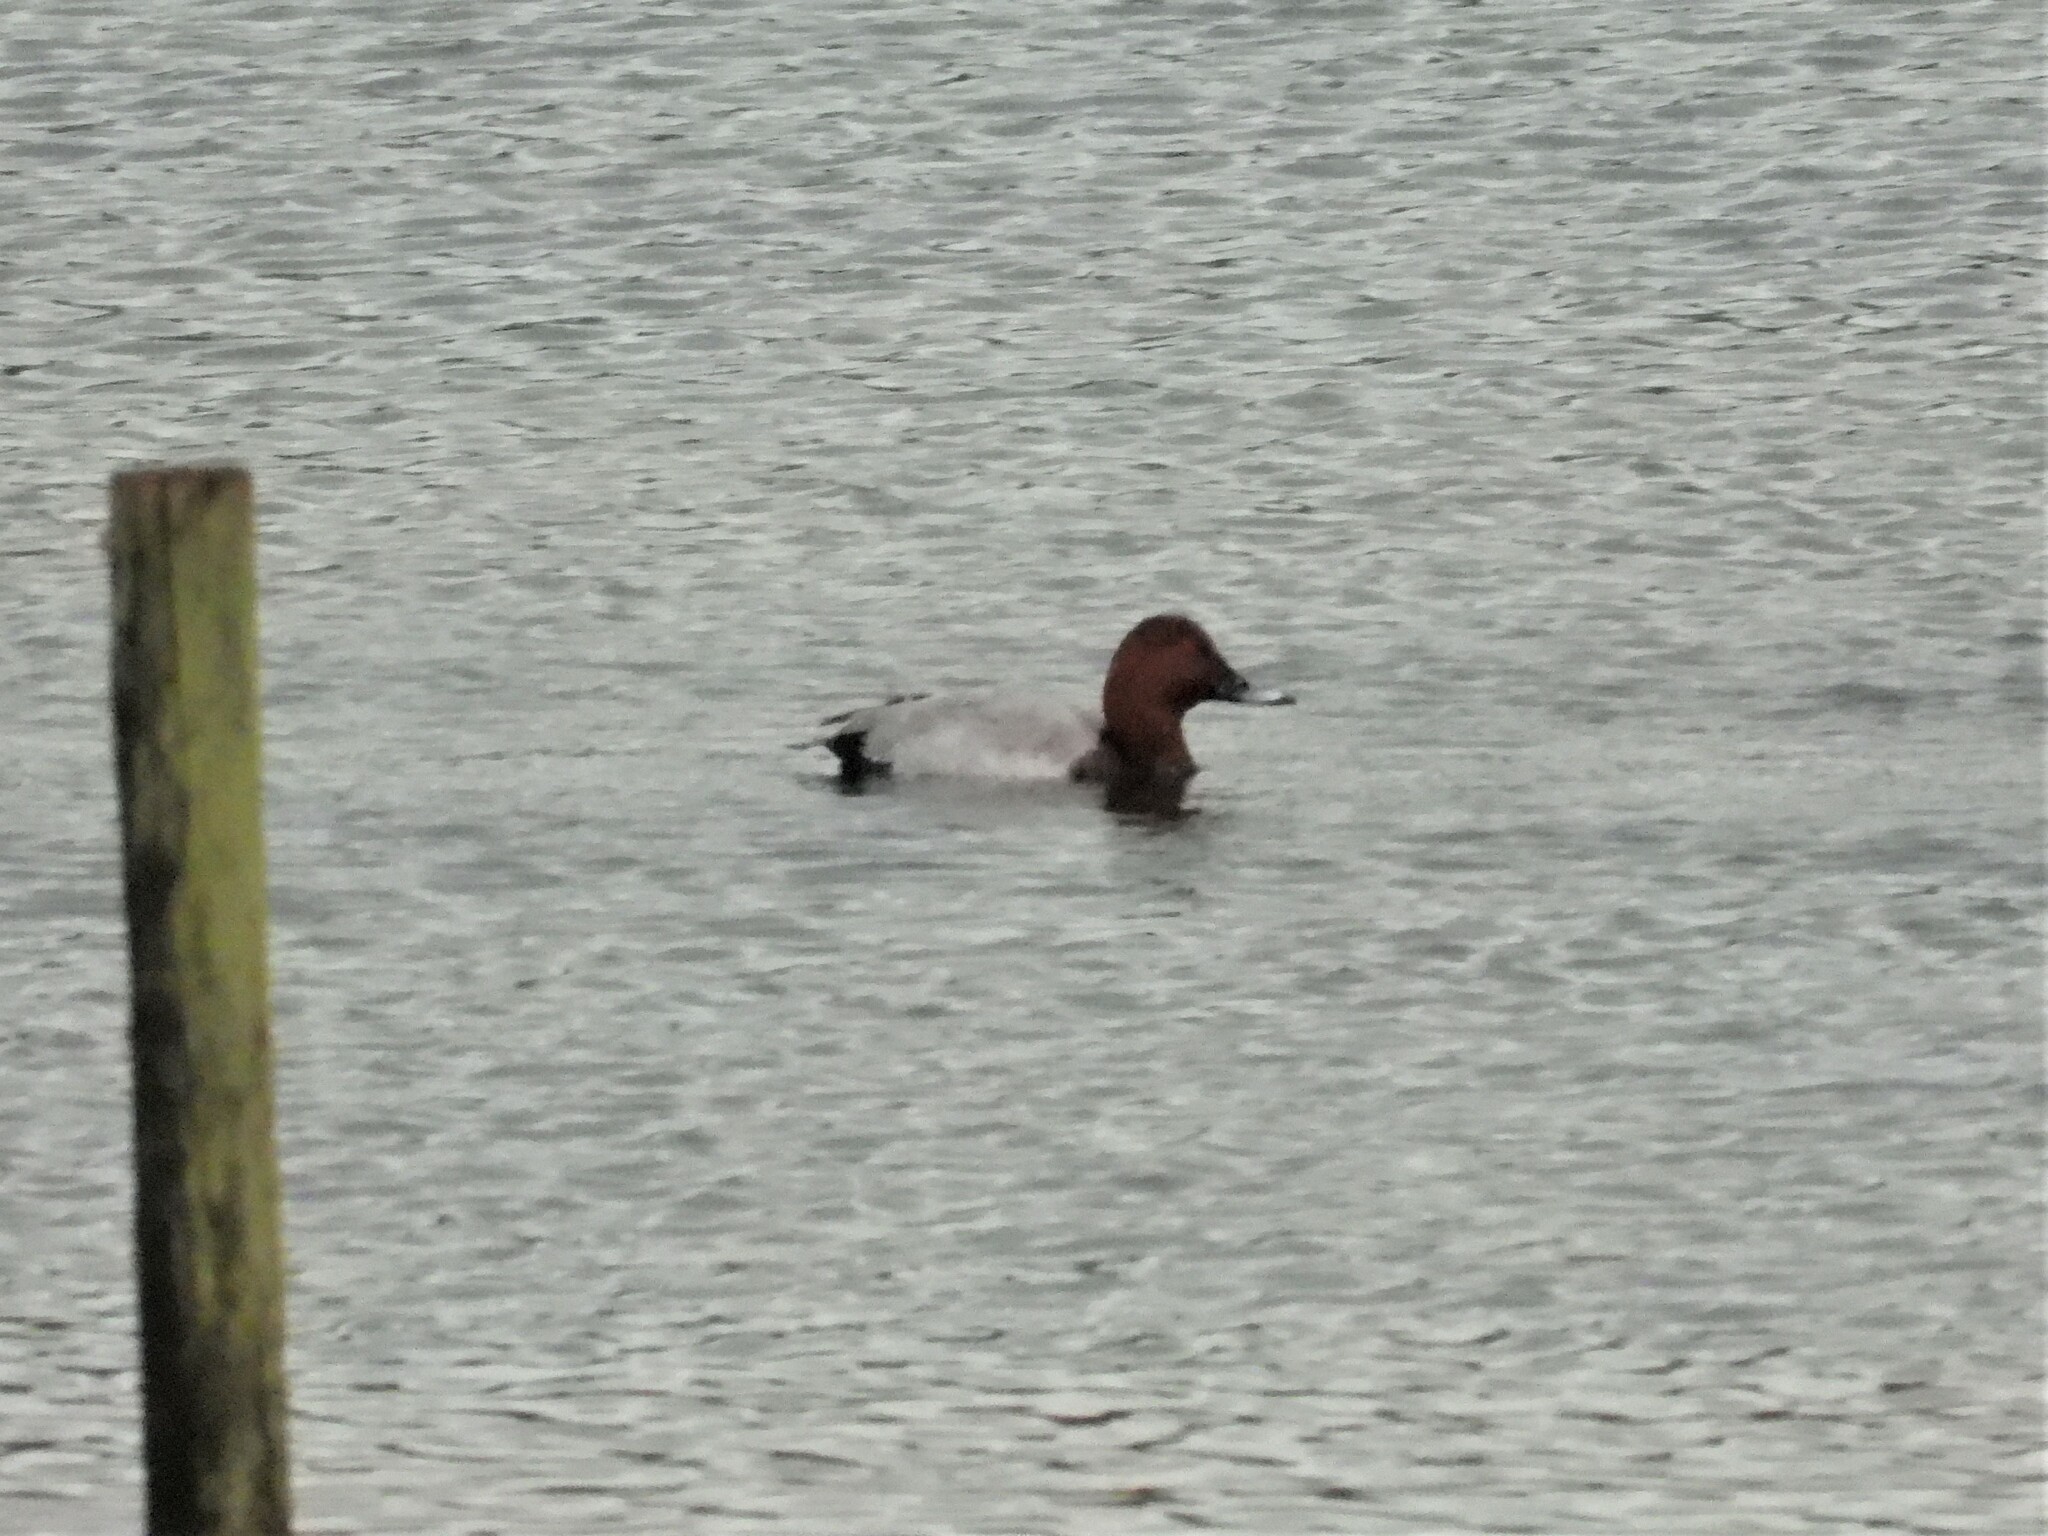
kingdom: Animalia
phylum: Chordata
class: Aves
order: Anseriformes
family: Anatidae
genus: Aythya
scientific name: Aythya ferina
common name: Common pochard
